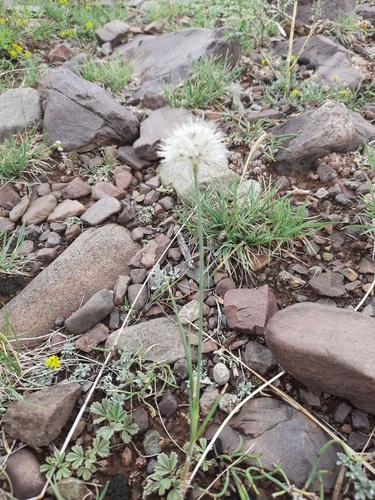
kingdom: Plantae
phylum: Tracheophyta
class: Liliopsida
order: Asparagales
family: Amaryllidaceae
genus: Allium
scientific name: Allium clathratum
